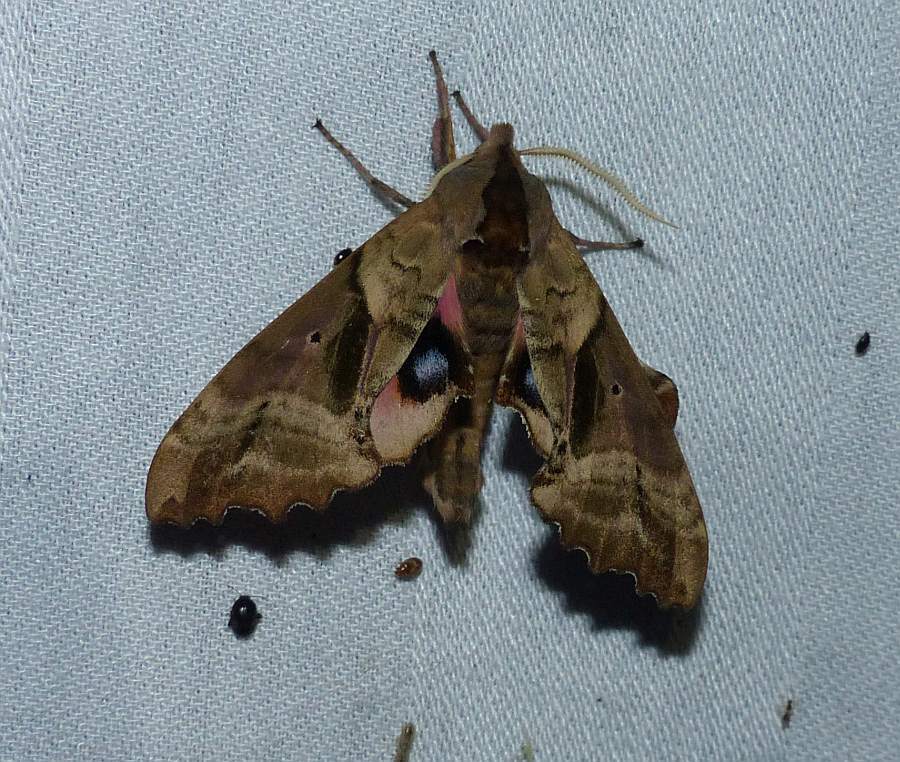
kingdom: Animalia
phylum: Arthropoda
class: Insecta
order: Lepidoptera
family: Sphingidae
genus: Paonias
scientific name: Paonias excaecata
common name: Blind-eyed sphinx
